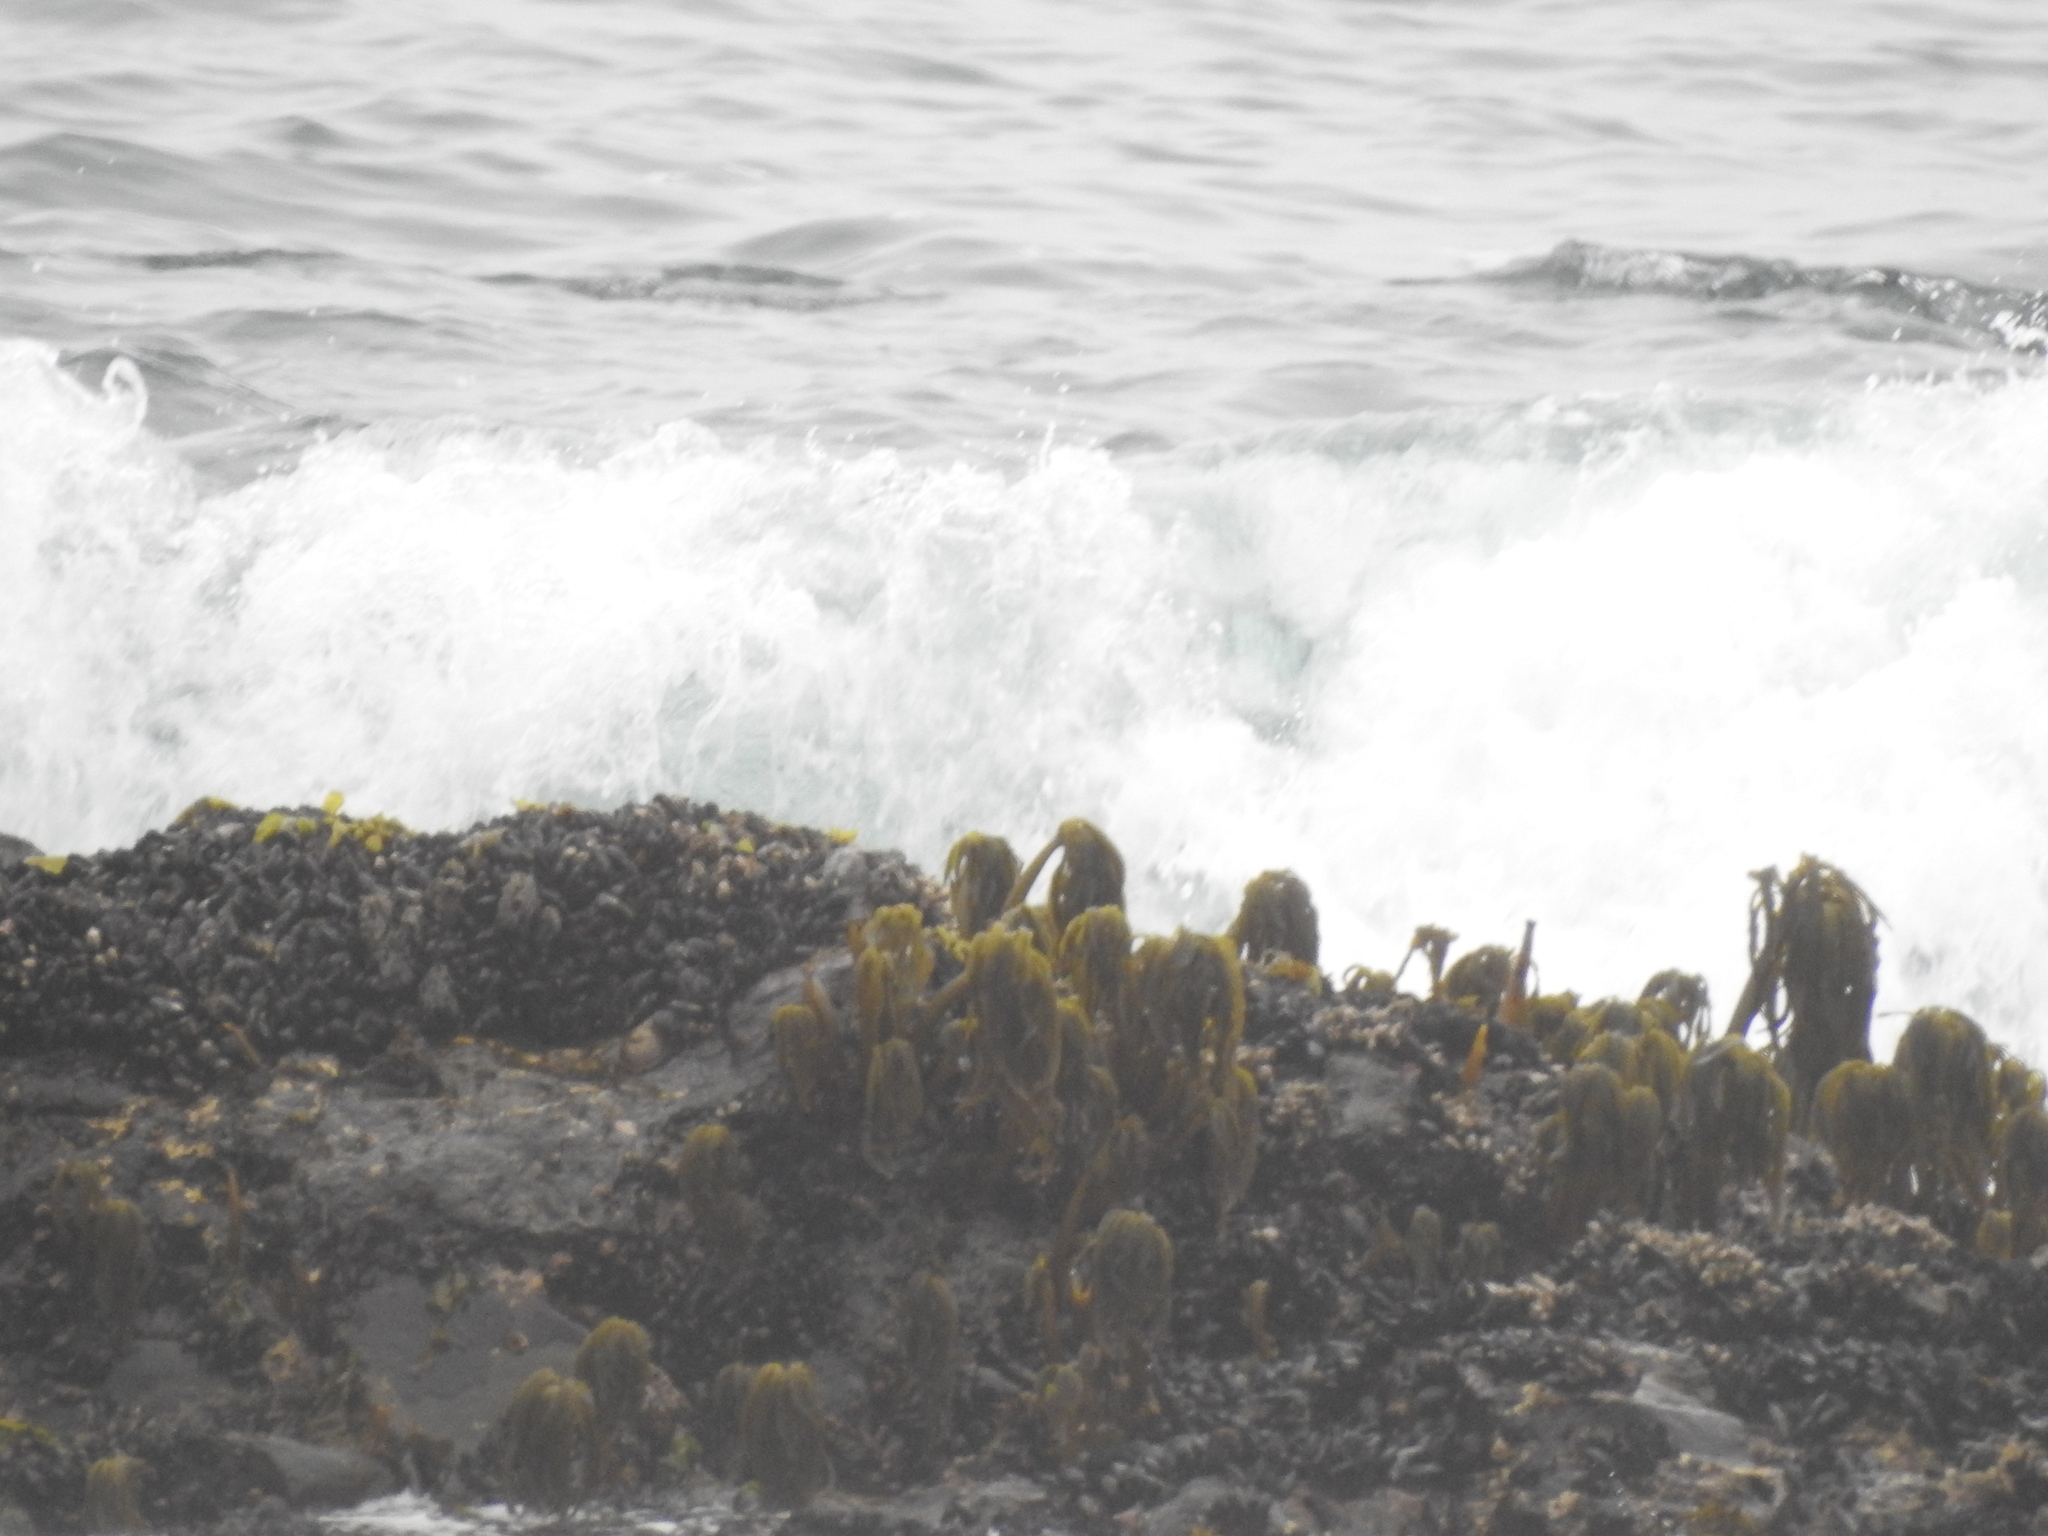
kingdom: Chromista
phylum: Ochrophyta
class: Phaeophyceae
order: Laminariales
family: Laminariaceae
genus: Postelsia
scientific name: Postelsia palmiformis
